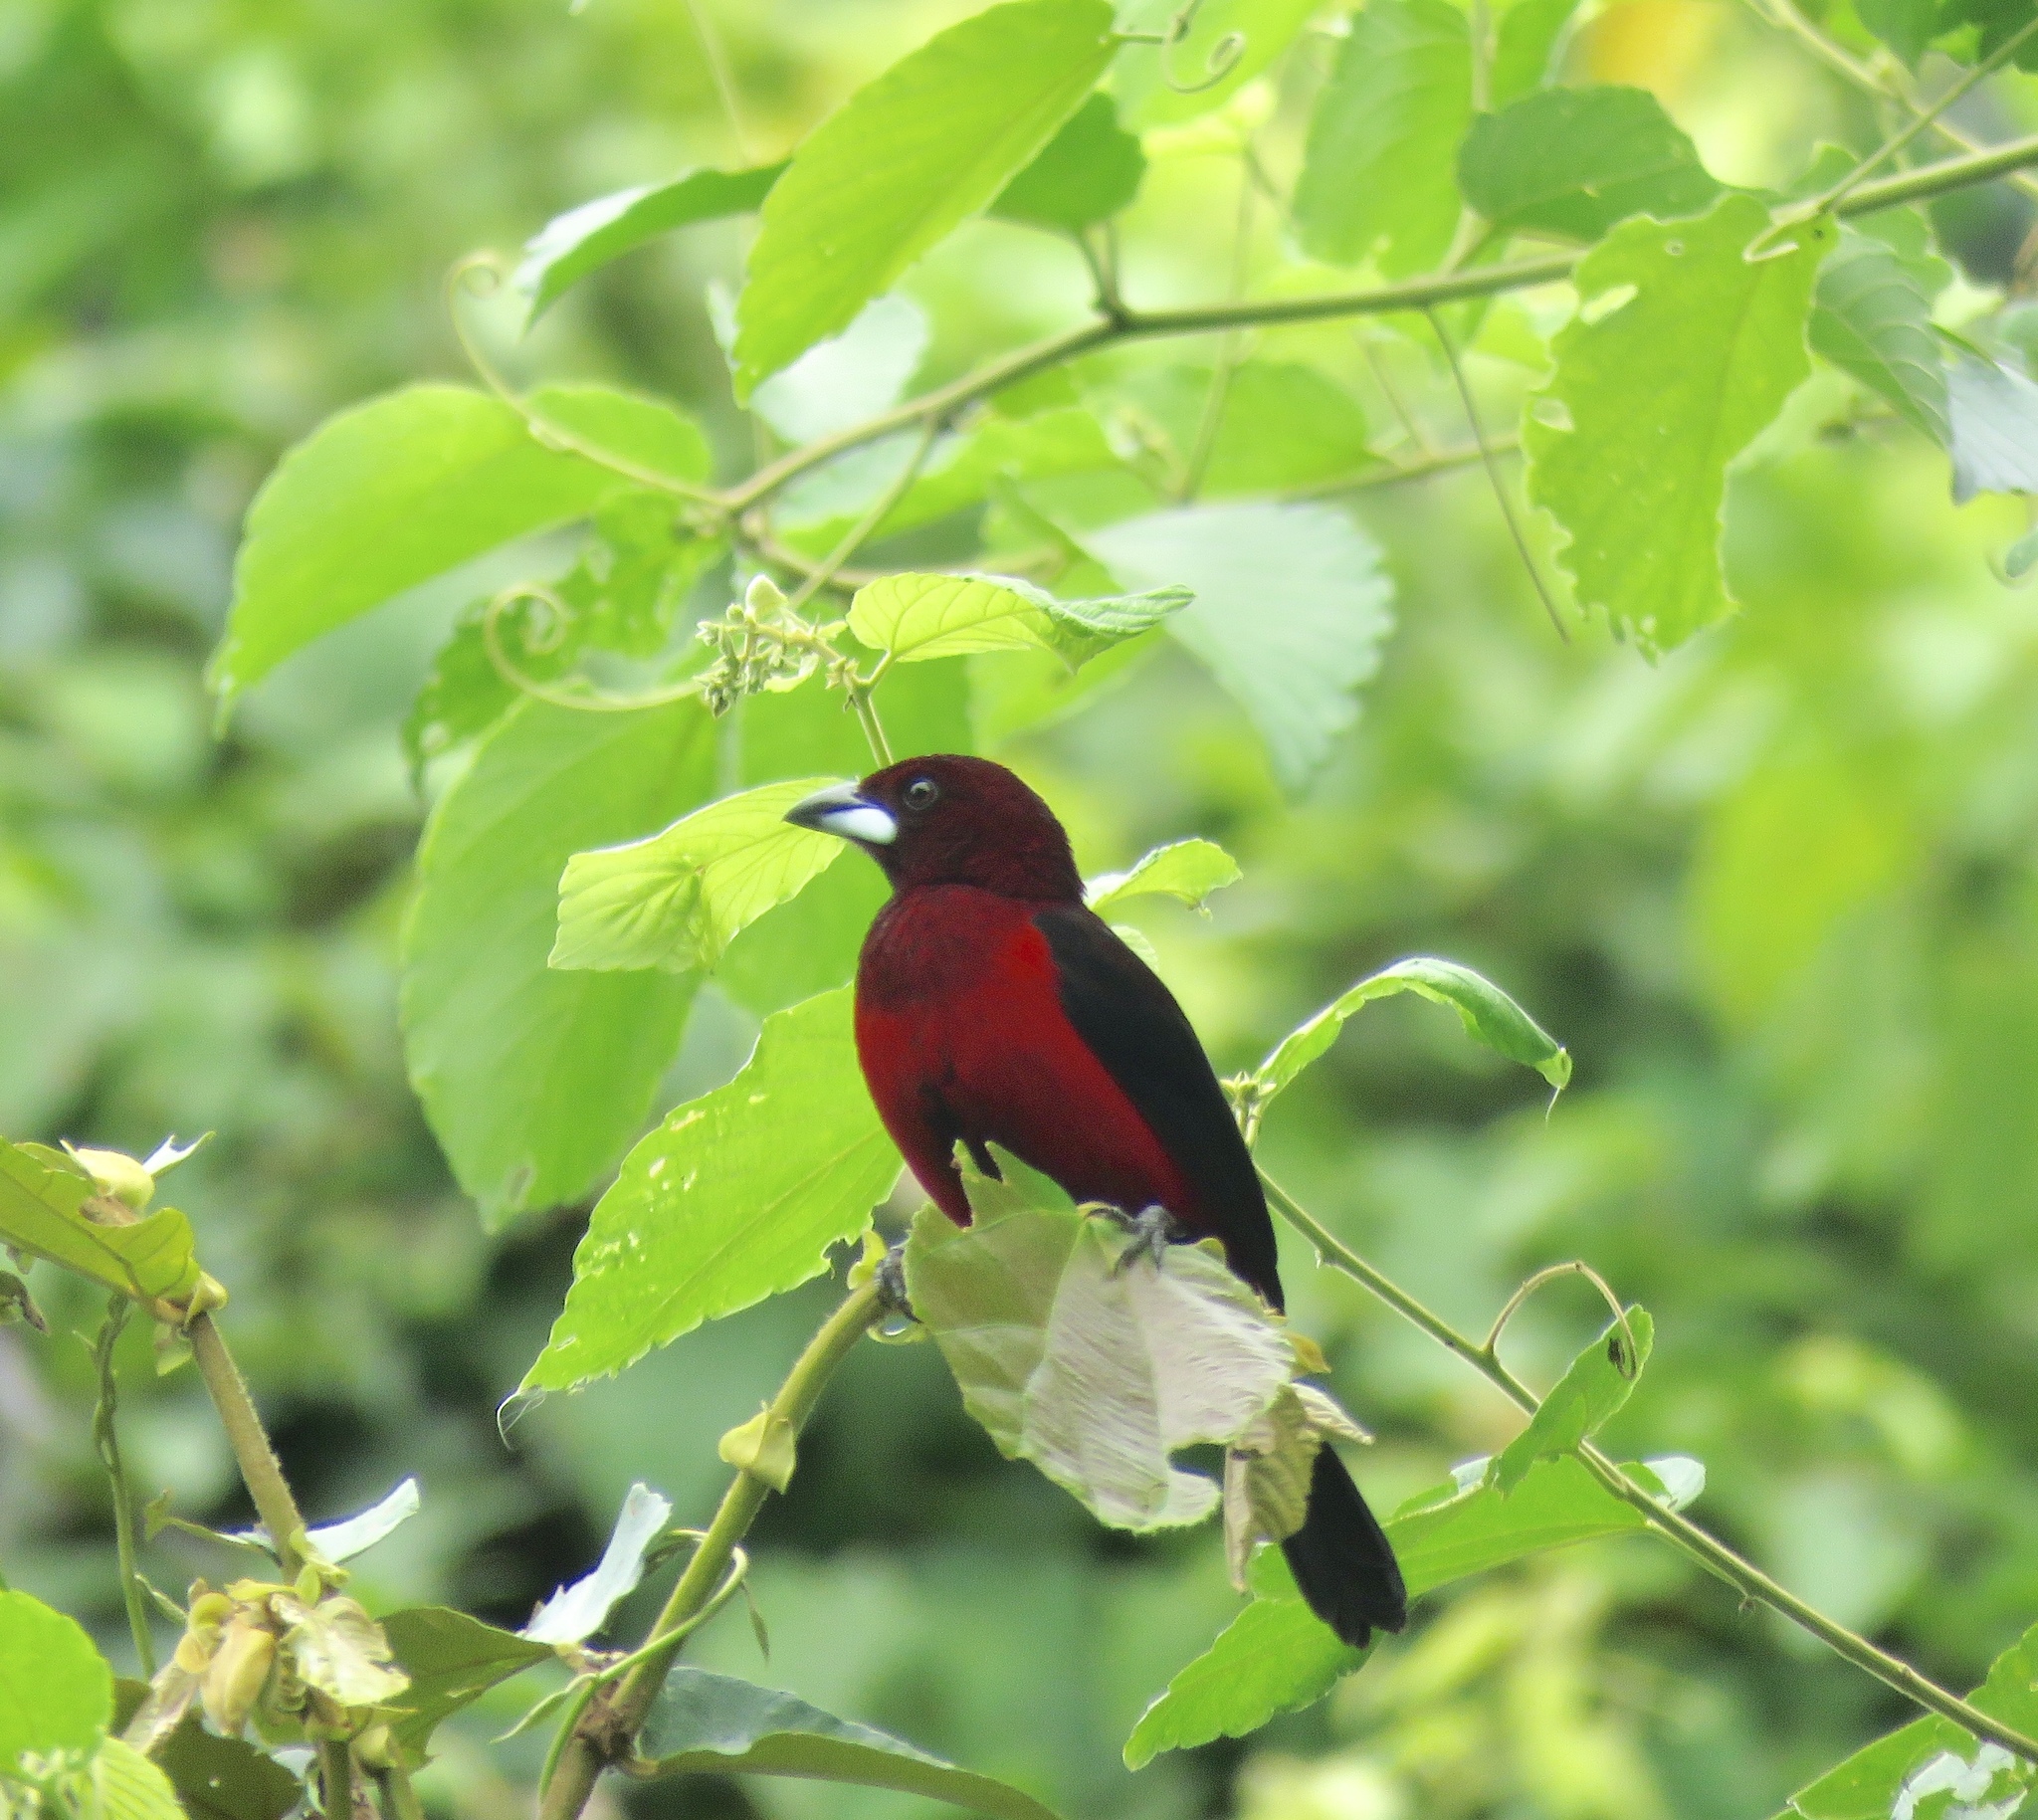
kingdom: Animalia
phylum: Chordata
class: Aves
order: Passeriformes
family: Thraupidae
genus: Ramphocelus
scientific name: Ramphocelus dimidiatus
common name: Crimson-backed tanager
